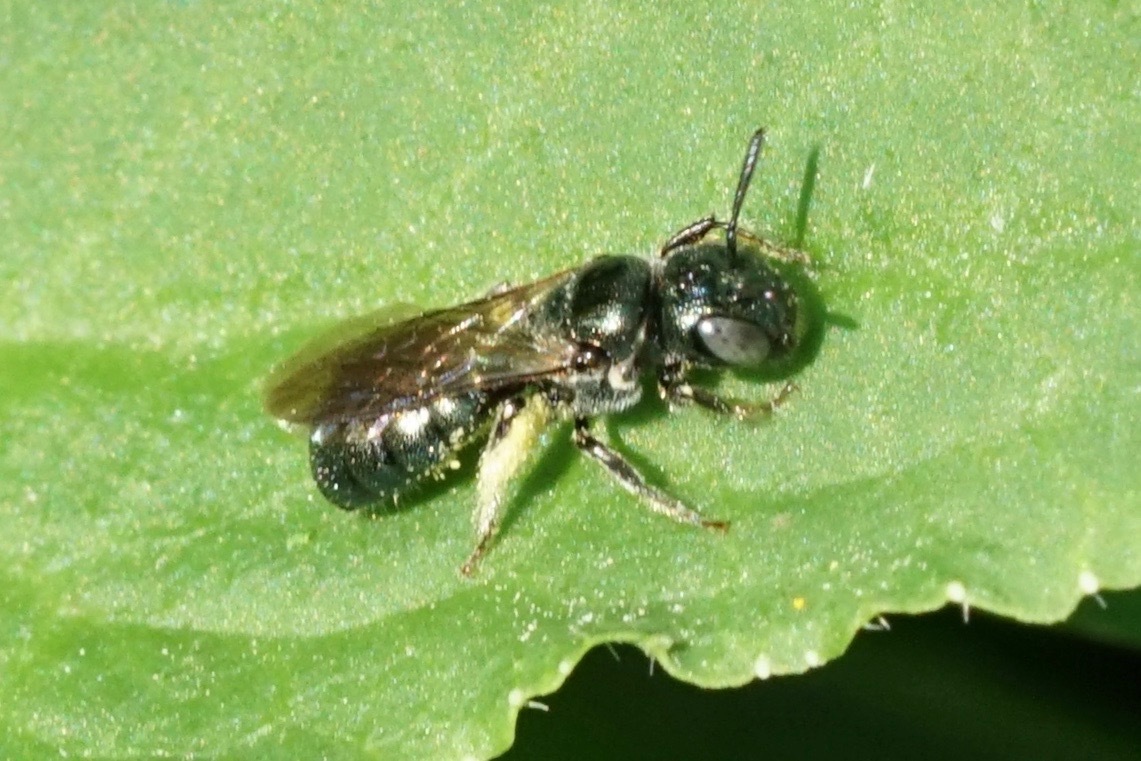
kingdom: Animalia
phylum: Arthropoda
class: Insecta
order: Hymenoptera
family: Apidae
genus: Zadontomerus
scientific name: Zadontomerus
